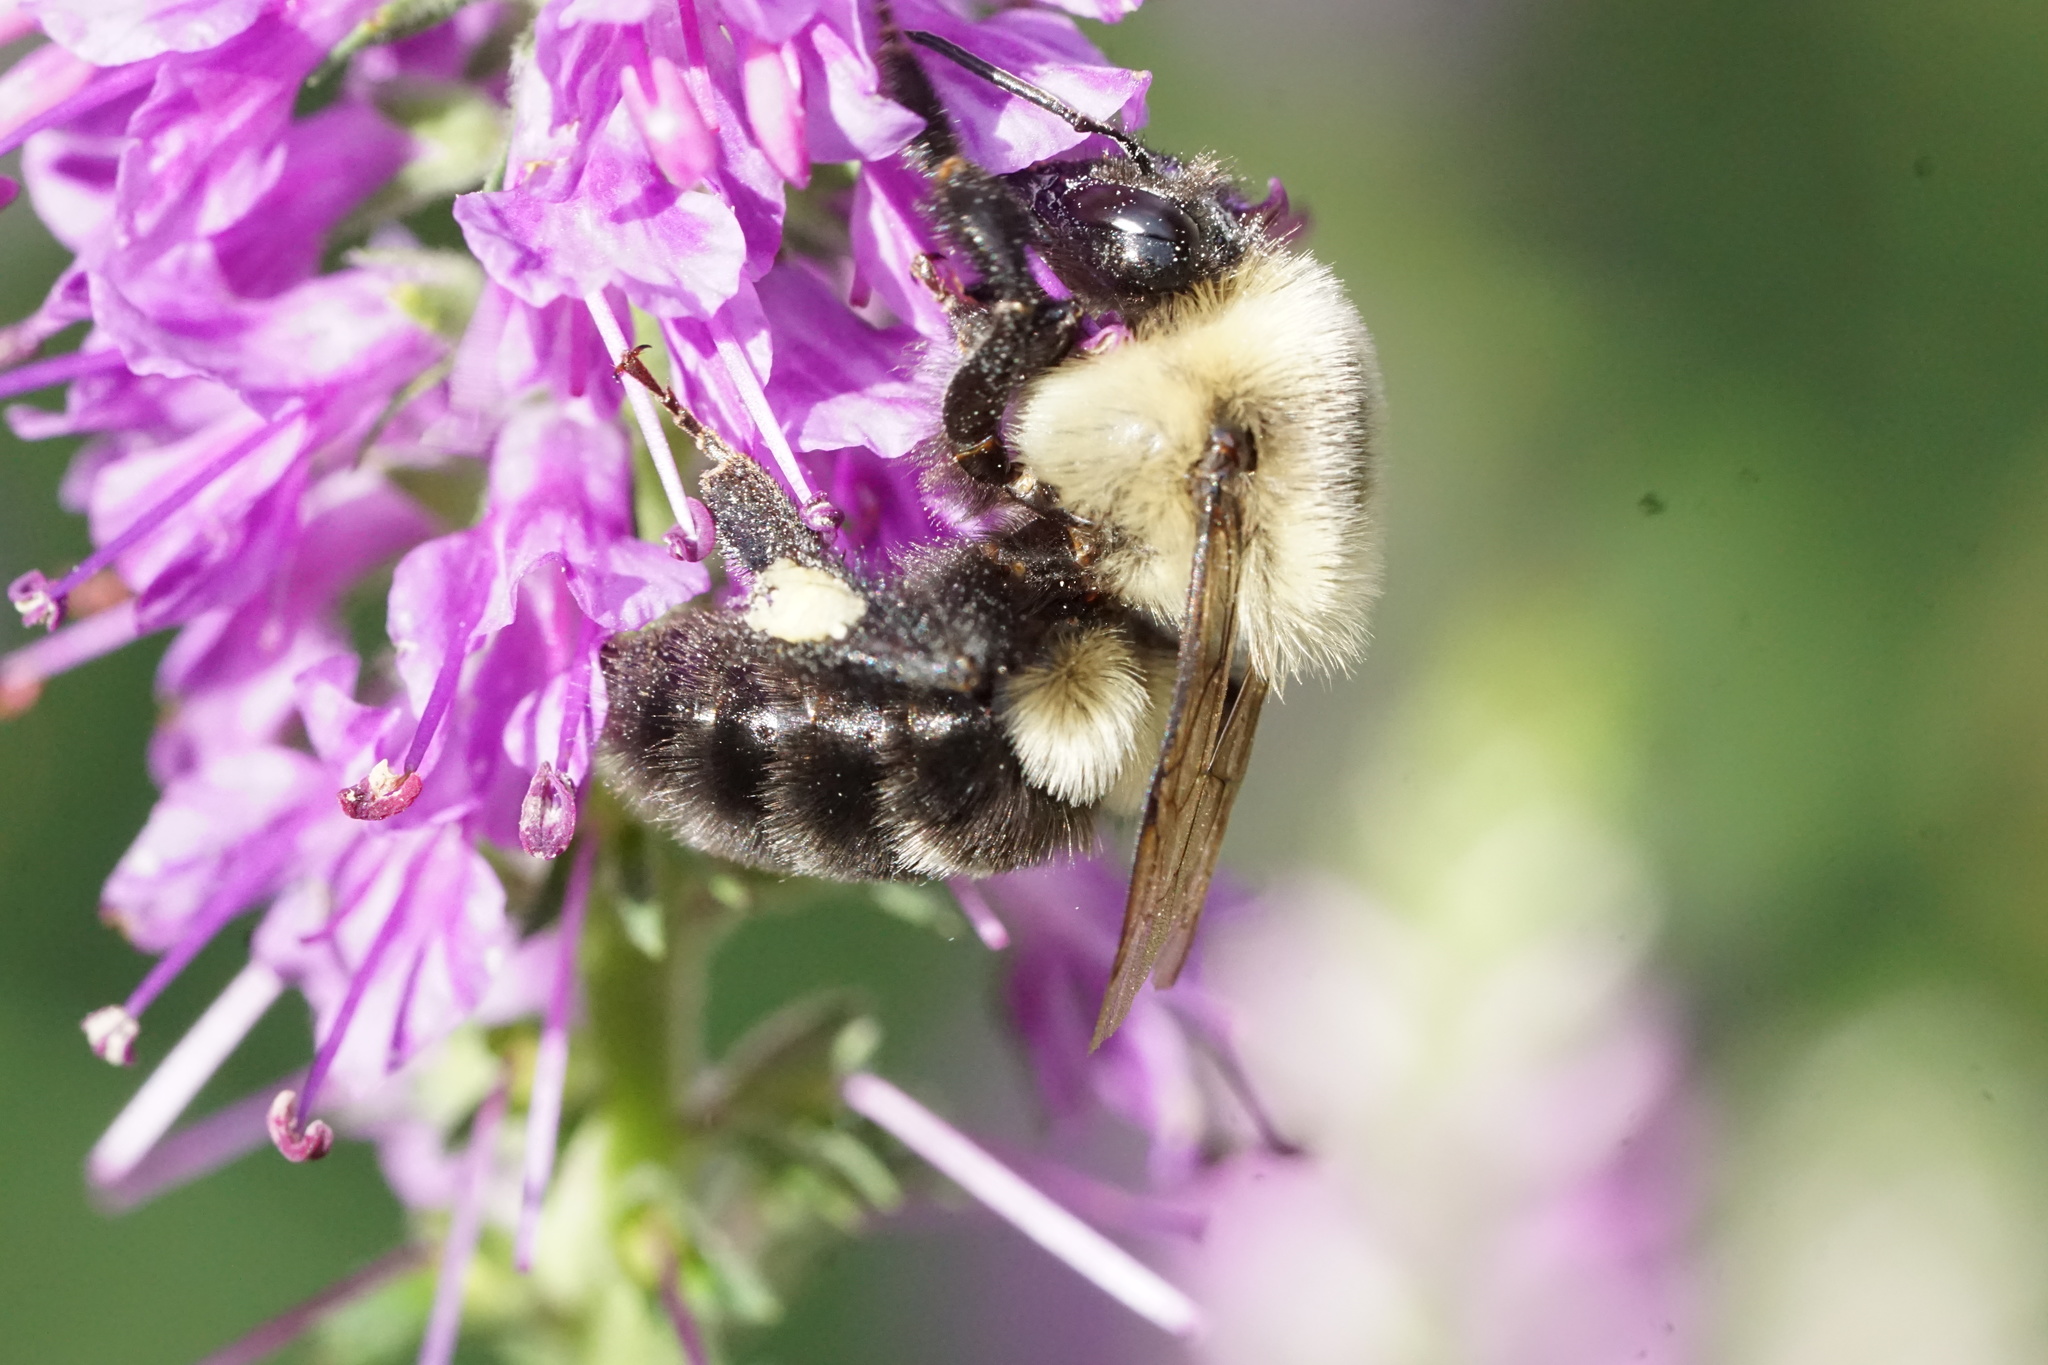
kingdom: Animalia
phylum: Arthropoda
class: Insecta
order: Hymenoptera
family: Apidae
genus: Bombus
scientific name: Bombus impatiens
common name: Common eastern bumble bee
